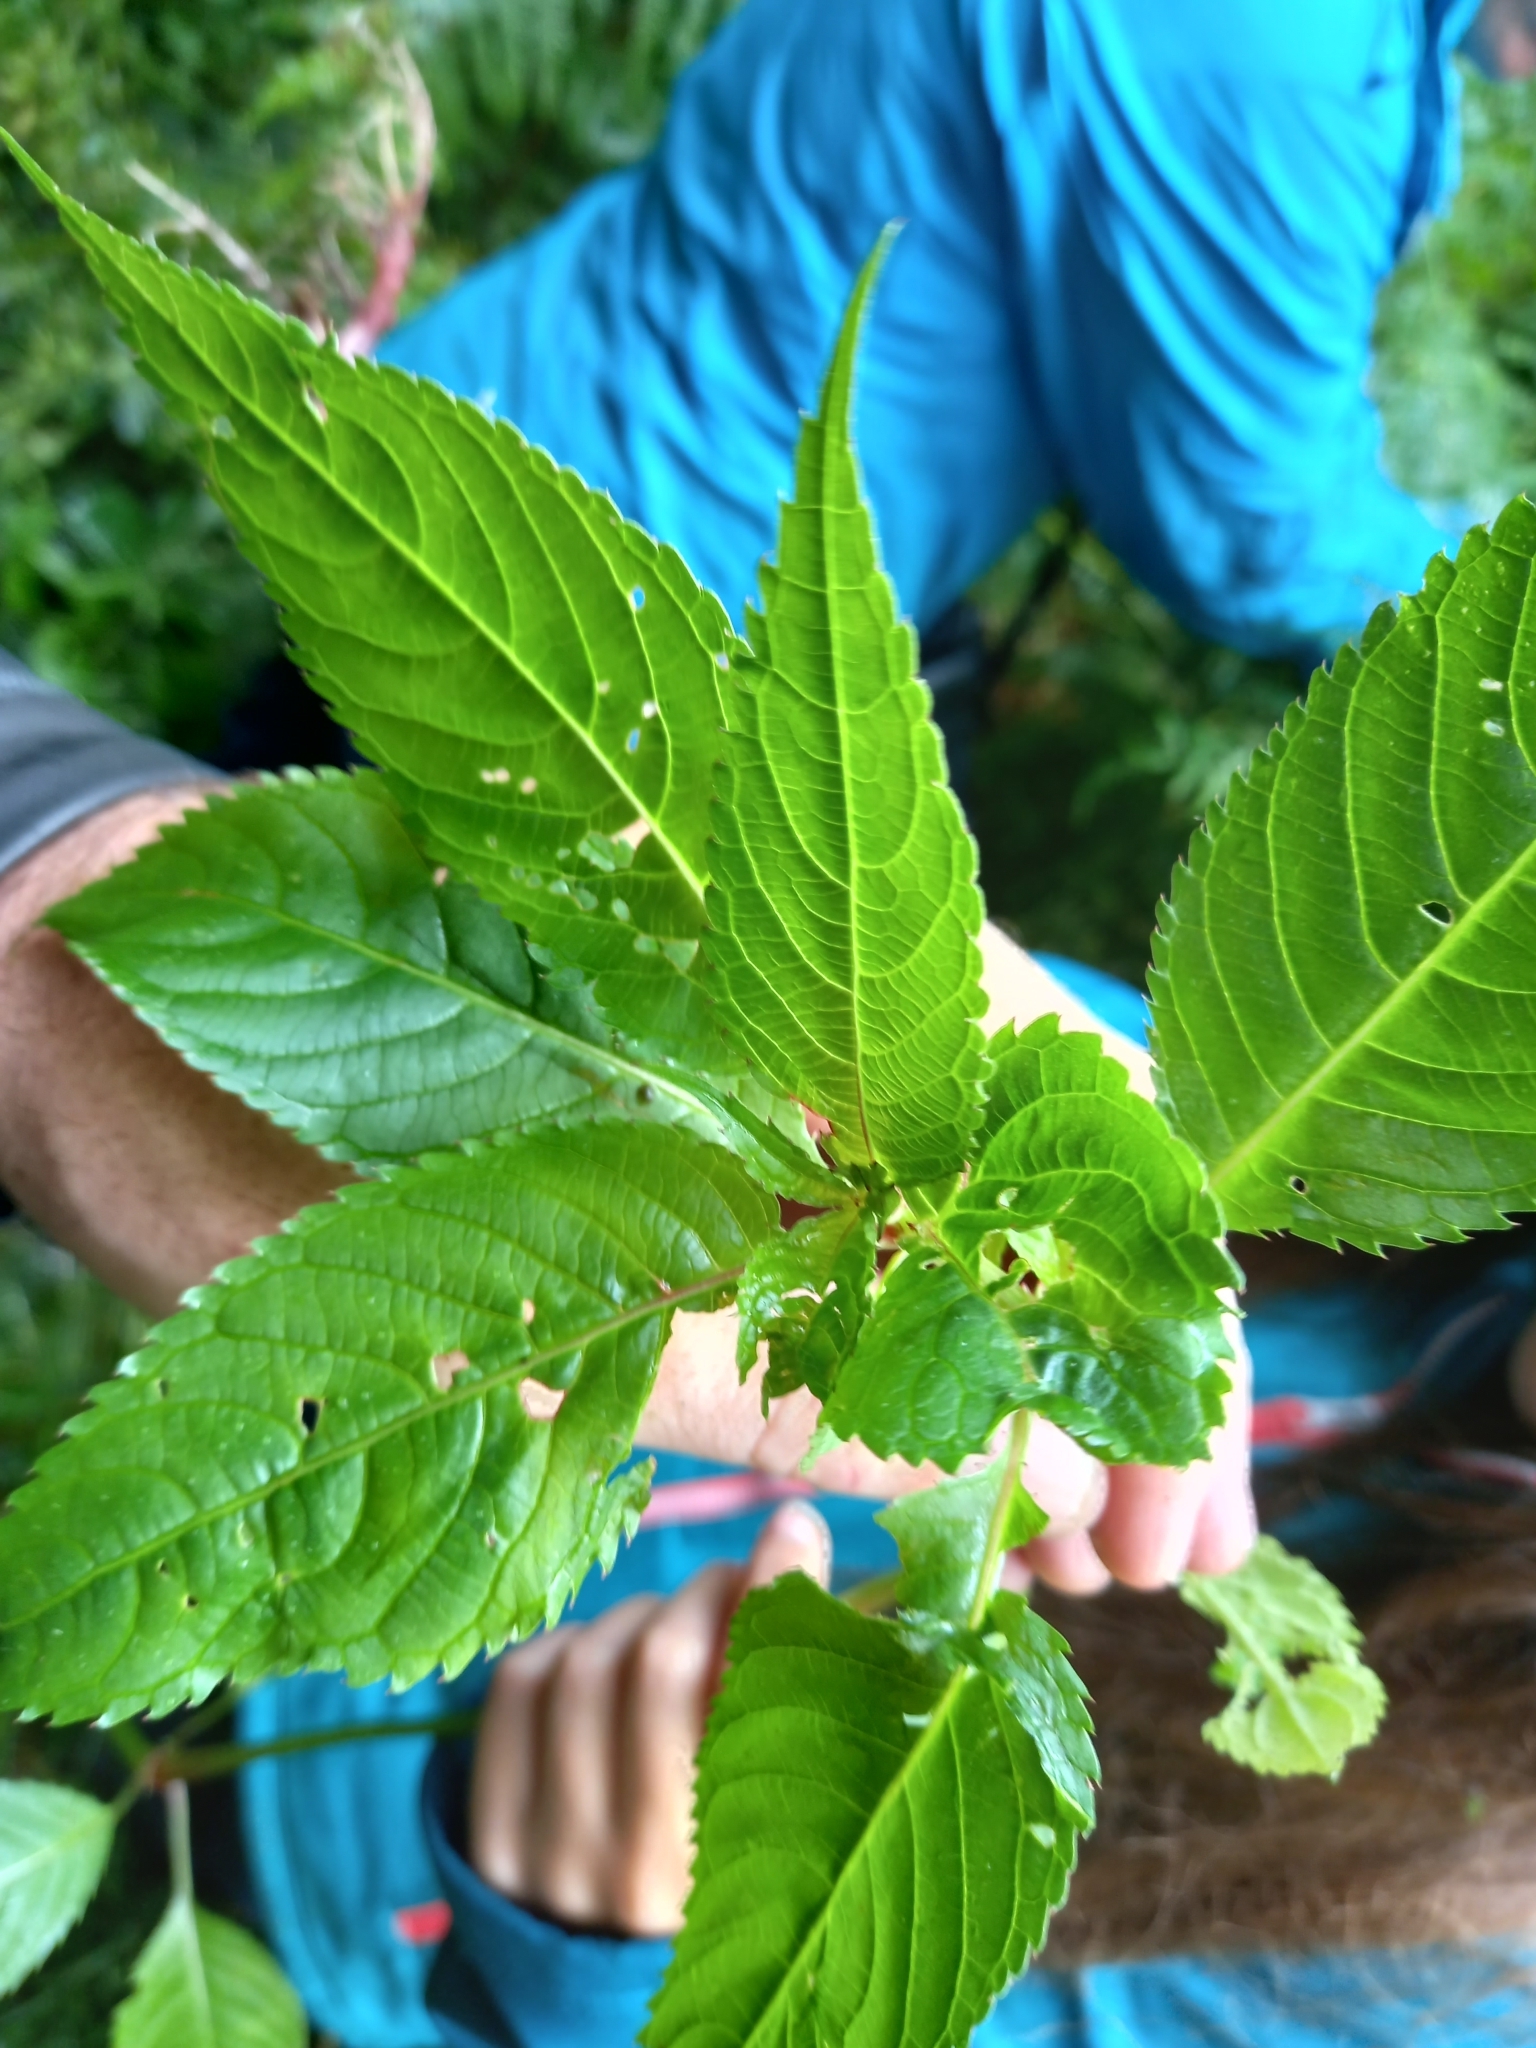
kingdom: Plantae
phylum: Tracheophyta
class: Magnoliopsida
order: Ericales
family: Balsaminaceae
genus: Impatiens
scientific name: Impatiens glandulifera
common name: Himalayan balsam
